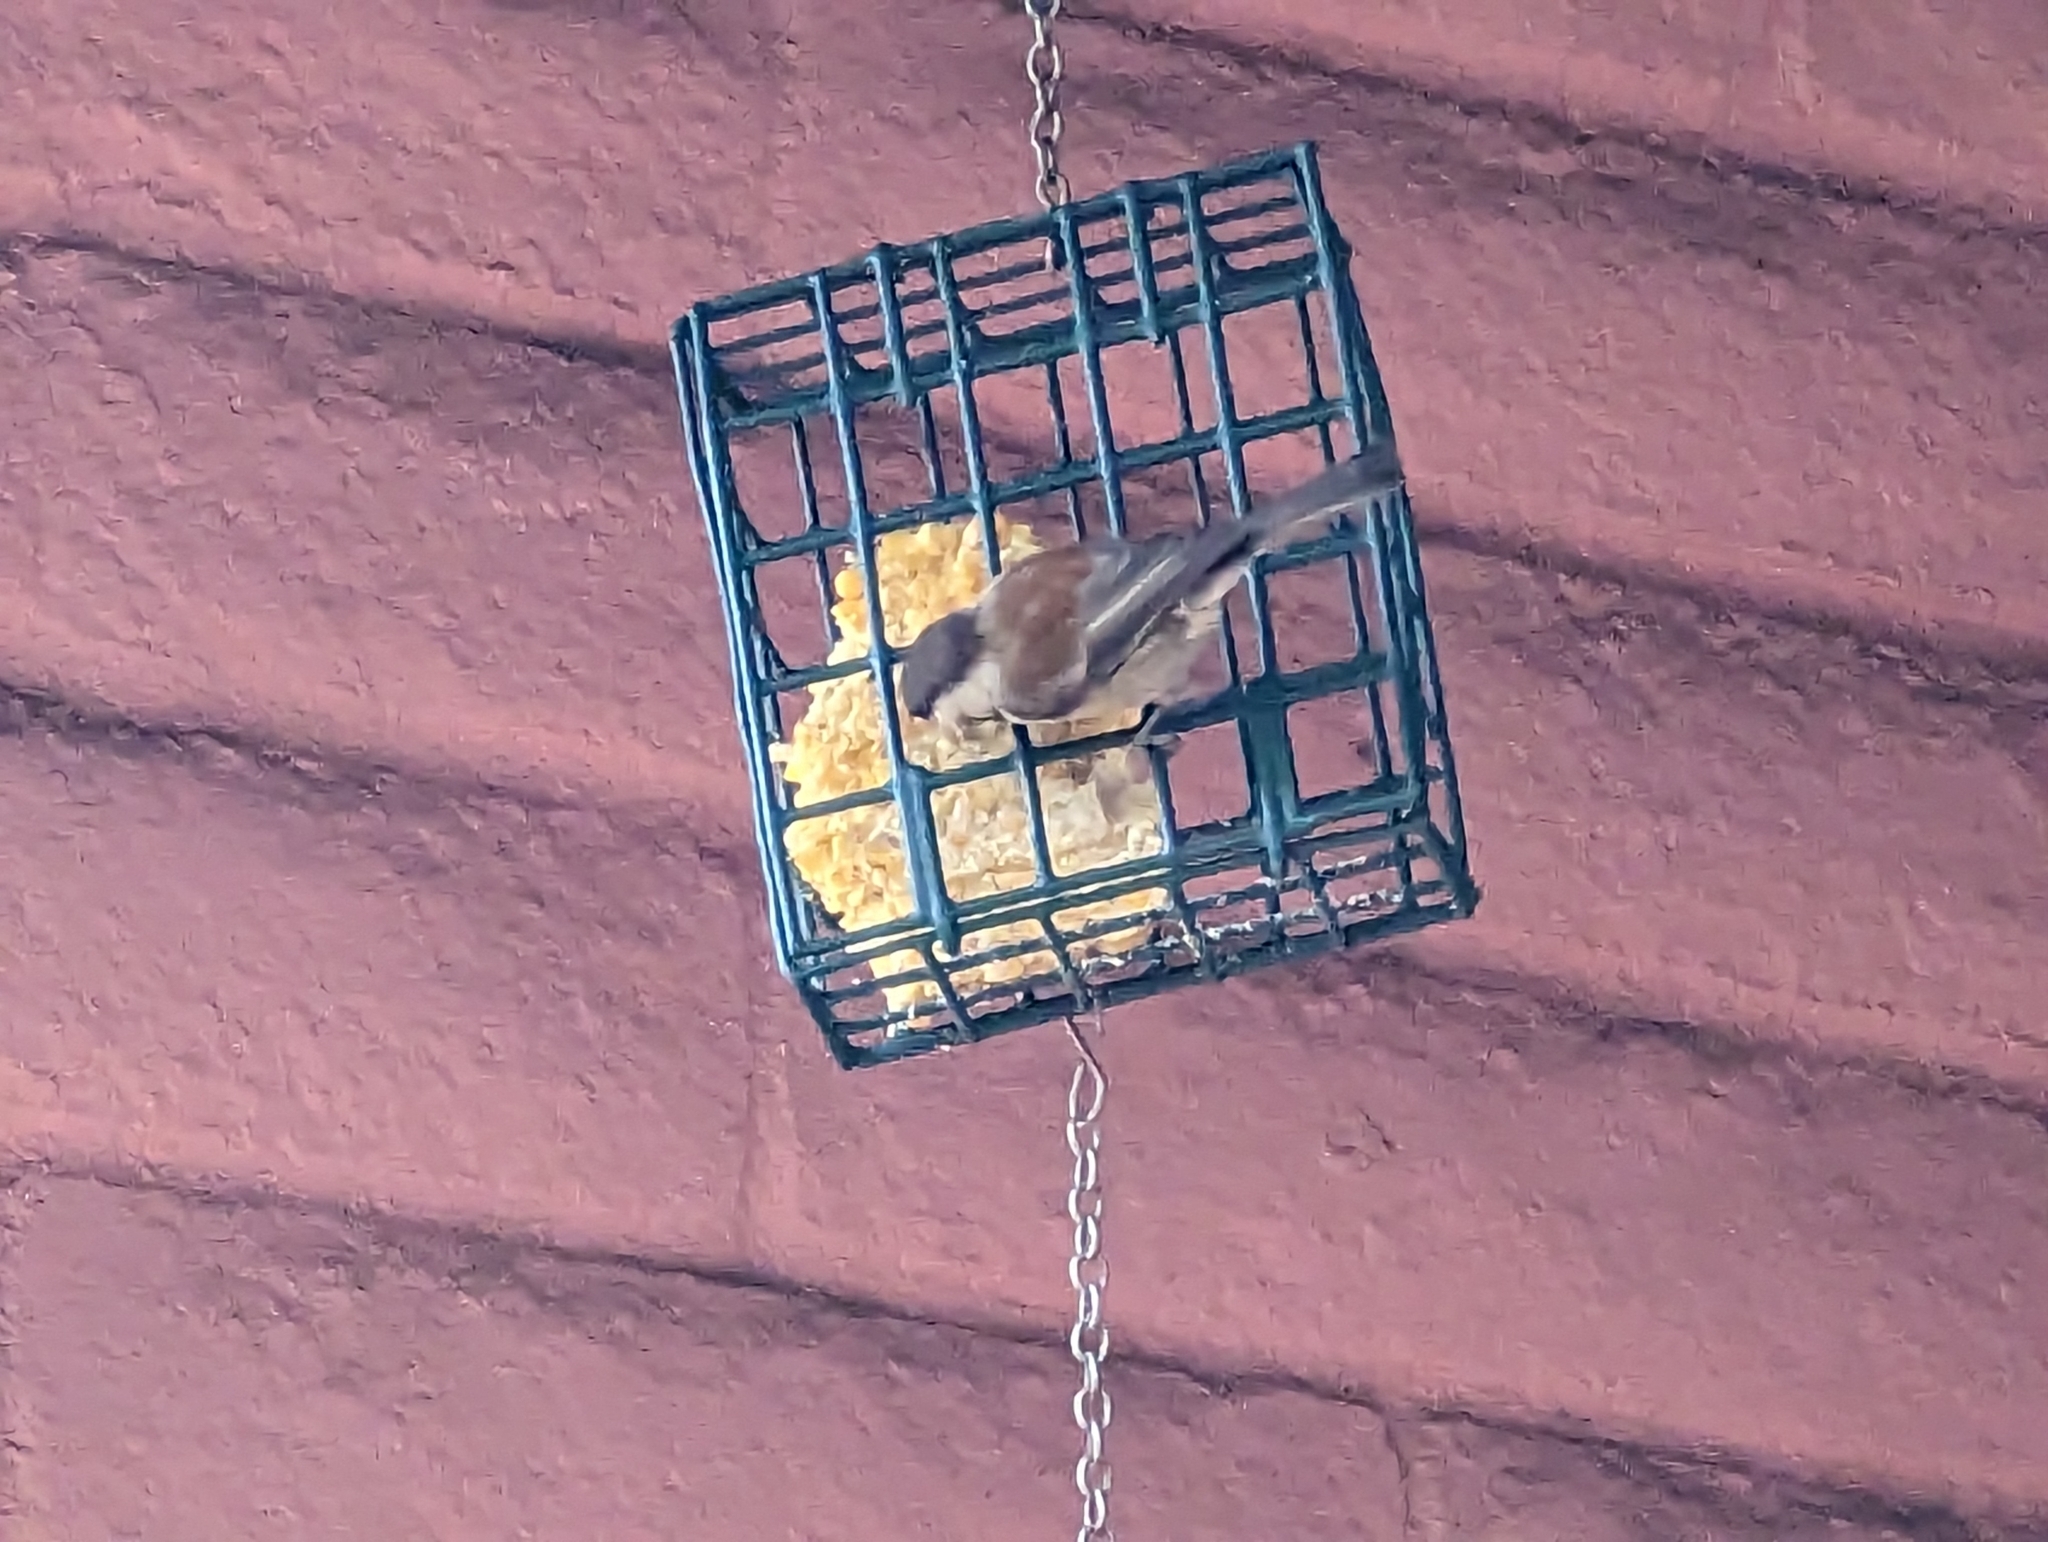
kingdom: Animalia
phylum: Chordata
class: Aves
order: Passeriformes
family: Paridae
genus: Poecile
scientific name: Poecile rufescens
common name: Chestnut-backed chickadee
